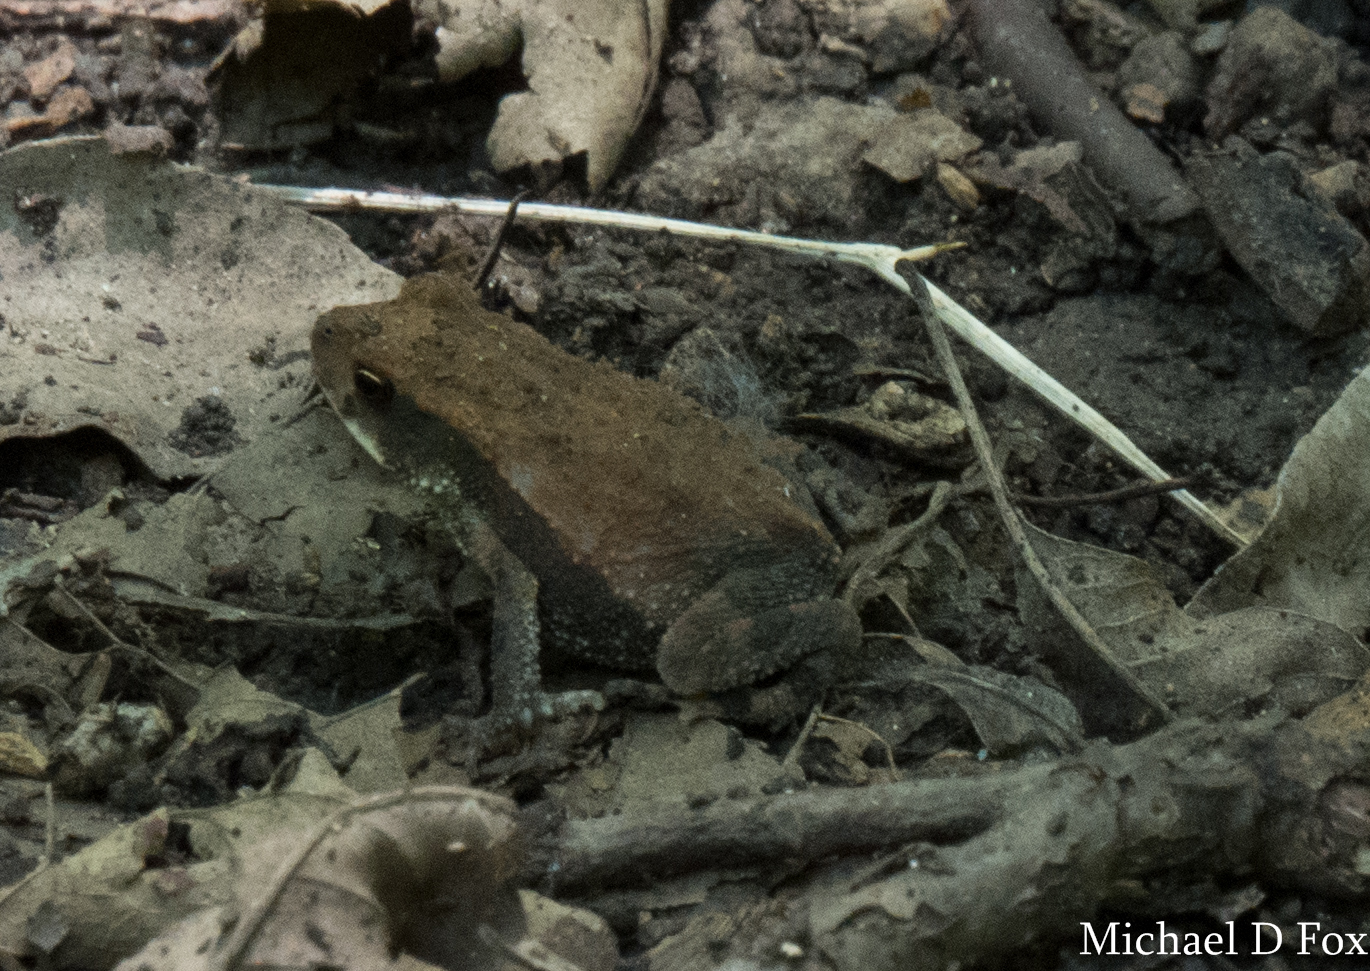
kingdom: Animalia
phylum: Chordata
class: Amphibia
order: Anura
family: Bufonidae
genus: Incilius
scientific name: Incilius nebulifer
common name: Gulf coast toad
